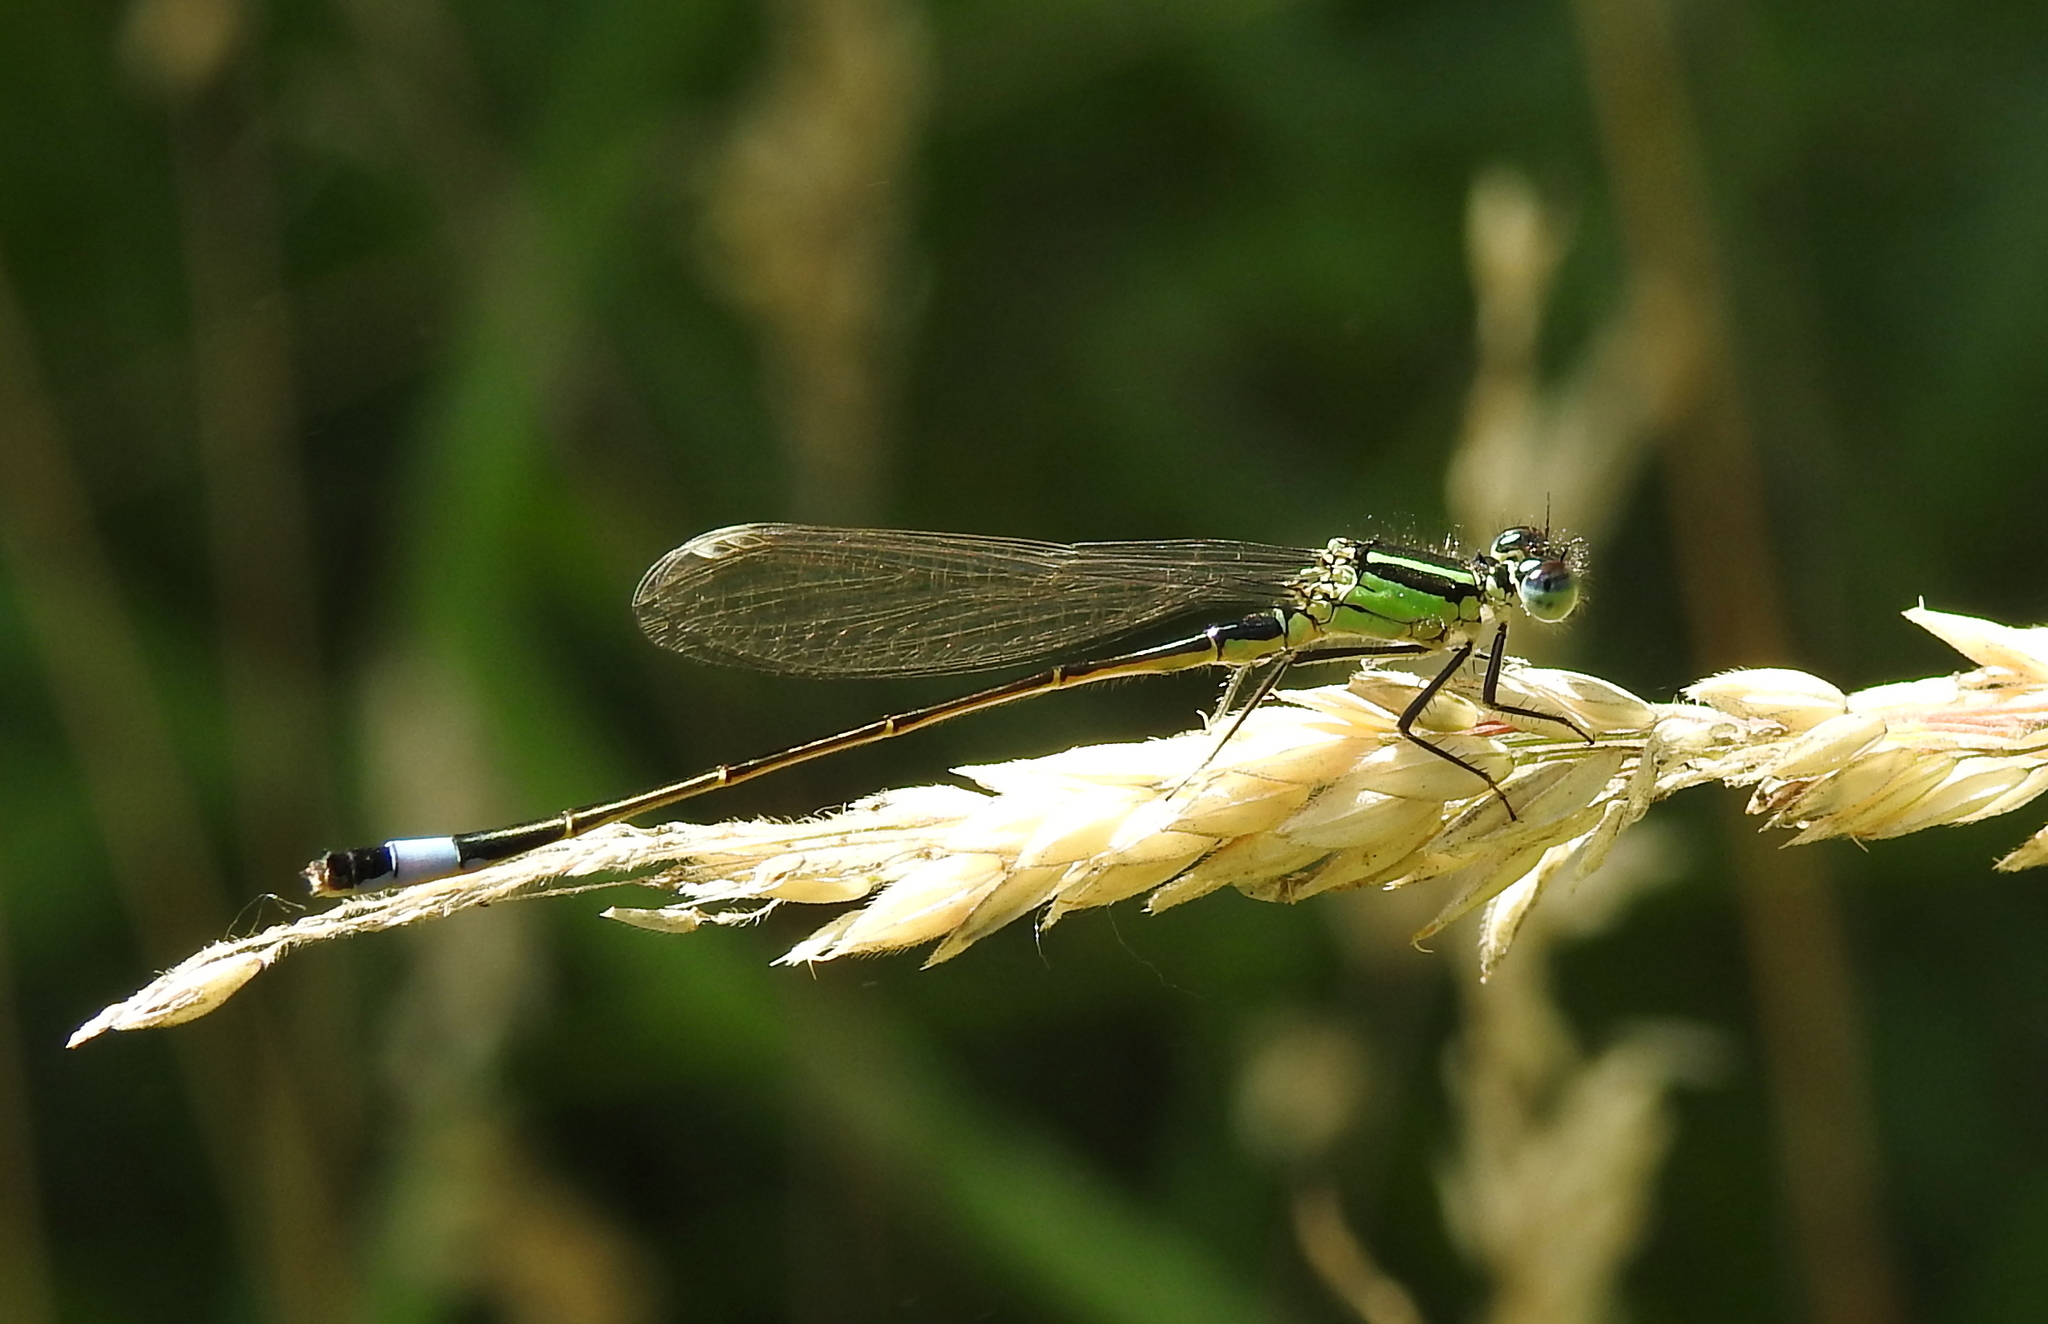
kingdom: Animalia
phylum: Arthropoda
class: Insecta
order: Odonata
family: Coenagrionidae
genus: Ischnura
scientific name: Ischnura elegans
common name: Blue-tailed damselfly
